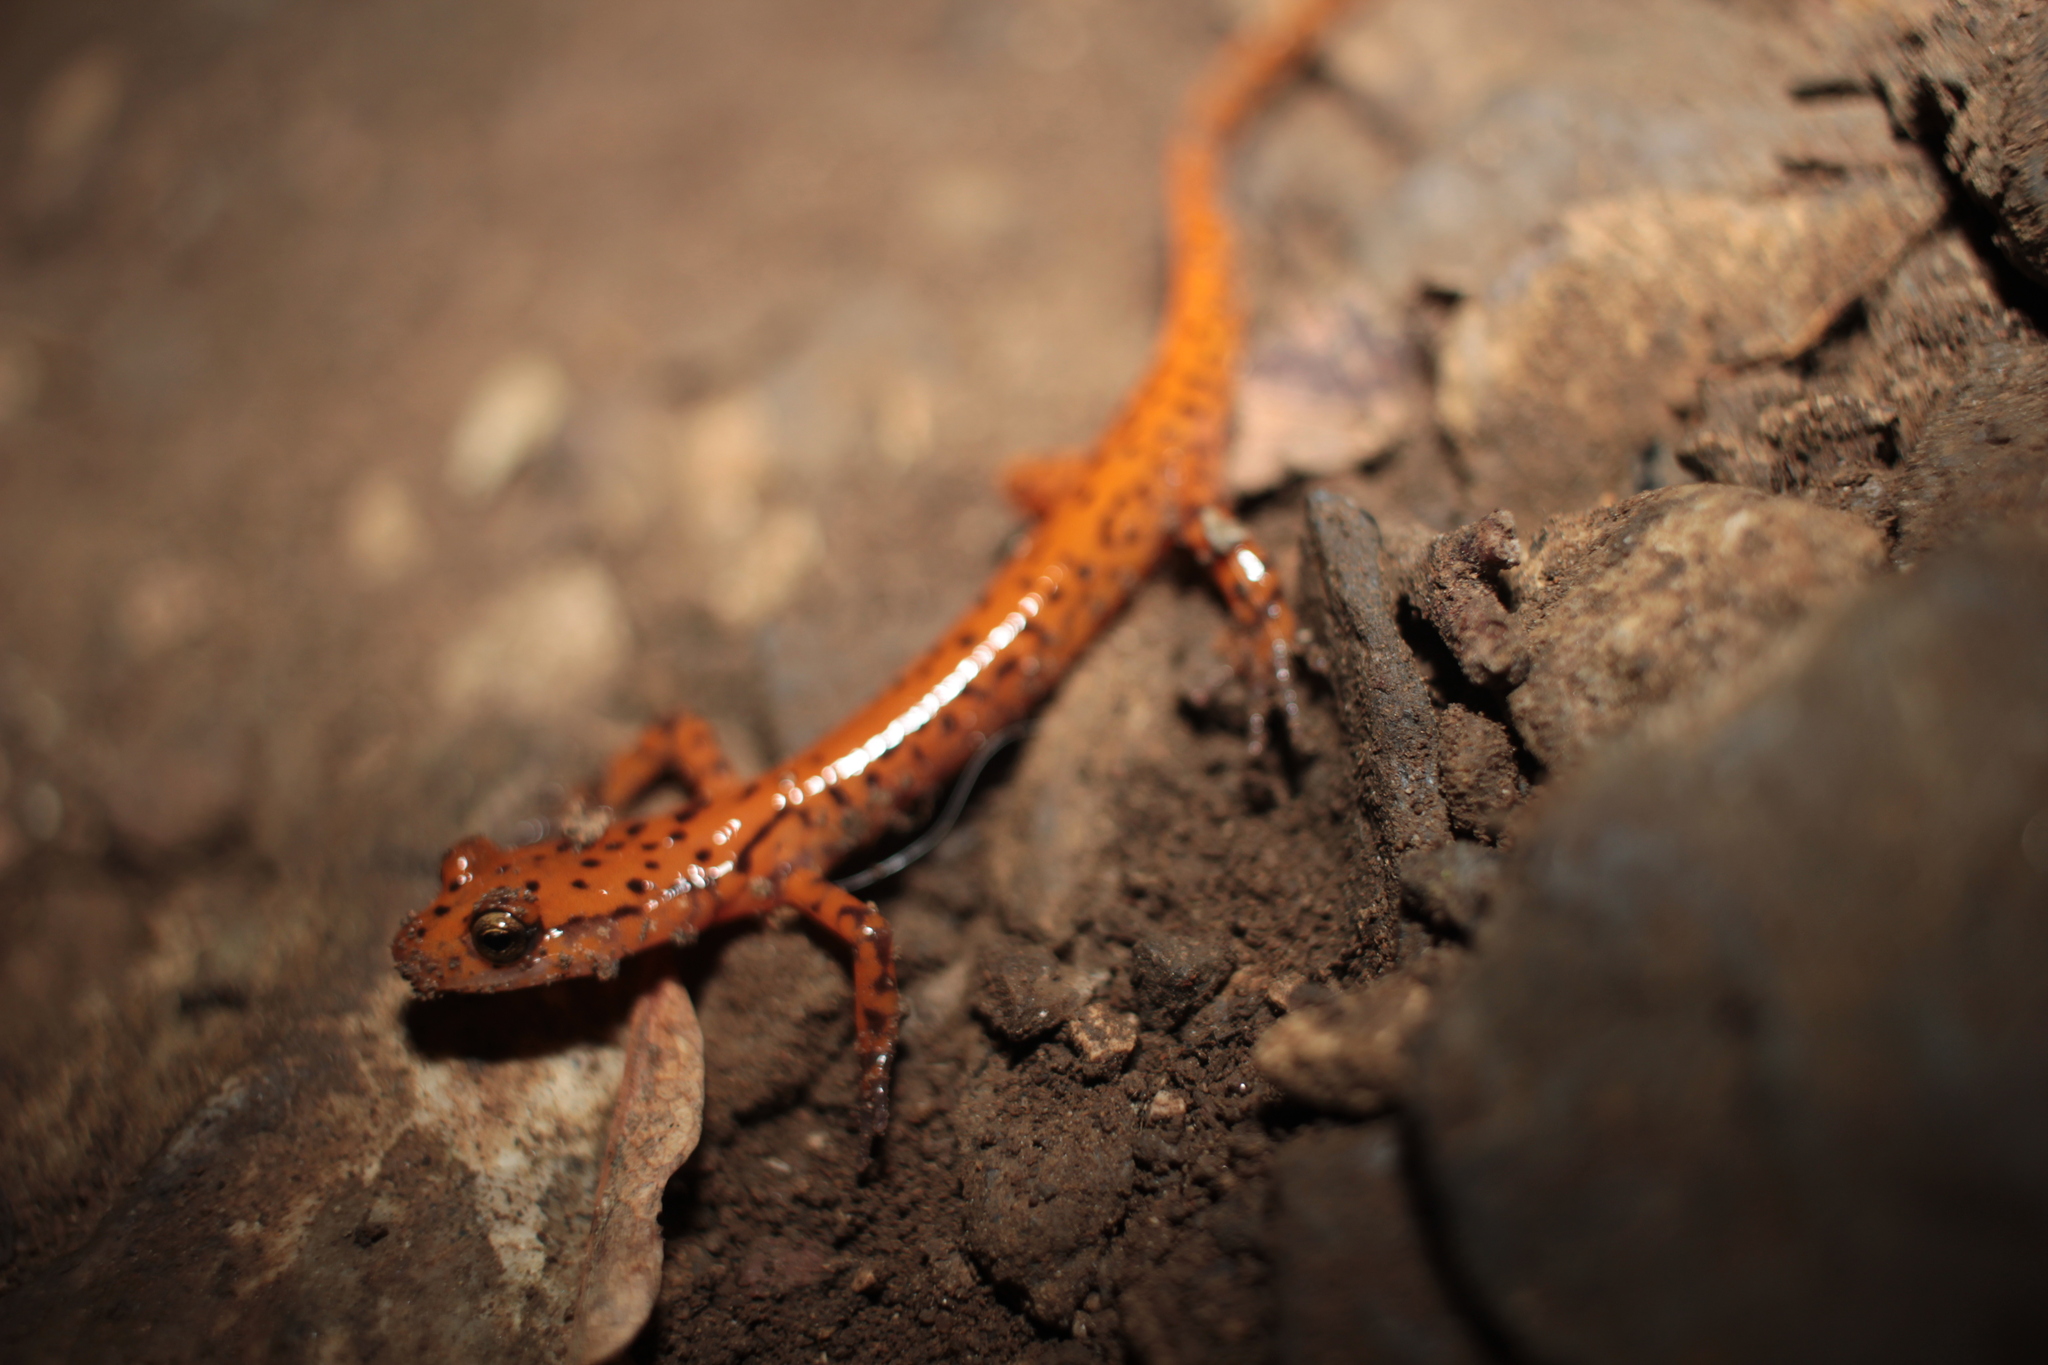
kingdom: Animalia
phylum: Chordata
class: Amphibia
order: Caudata
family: Plethodontidae
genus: Eurycea
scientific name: Eurycea lucifuga
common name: Cave salamander
